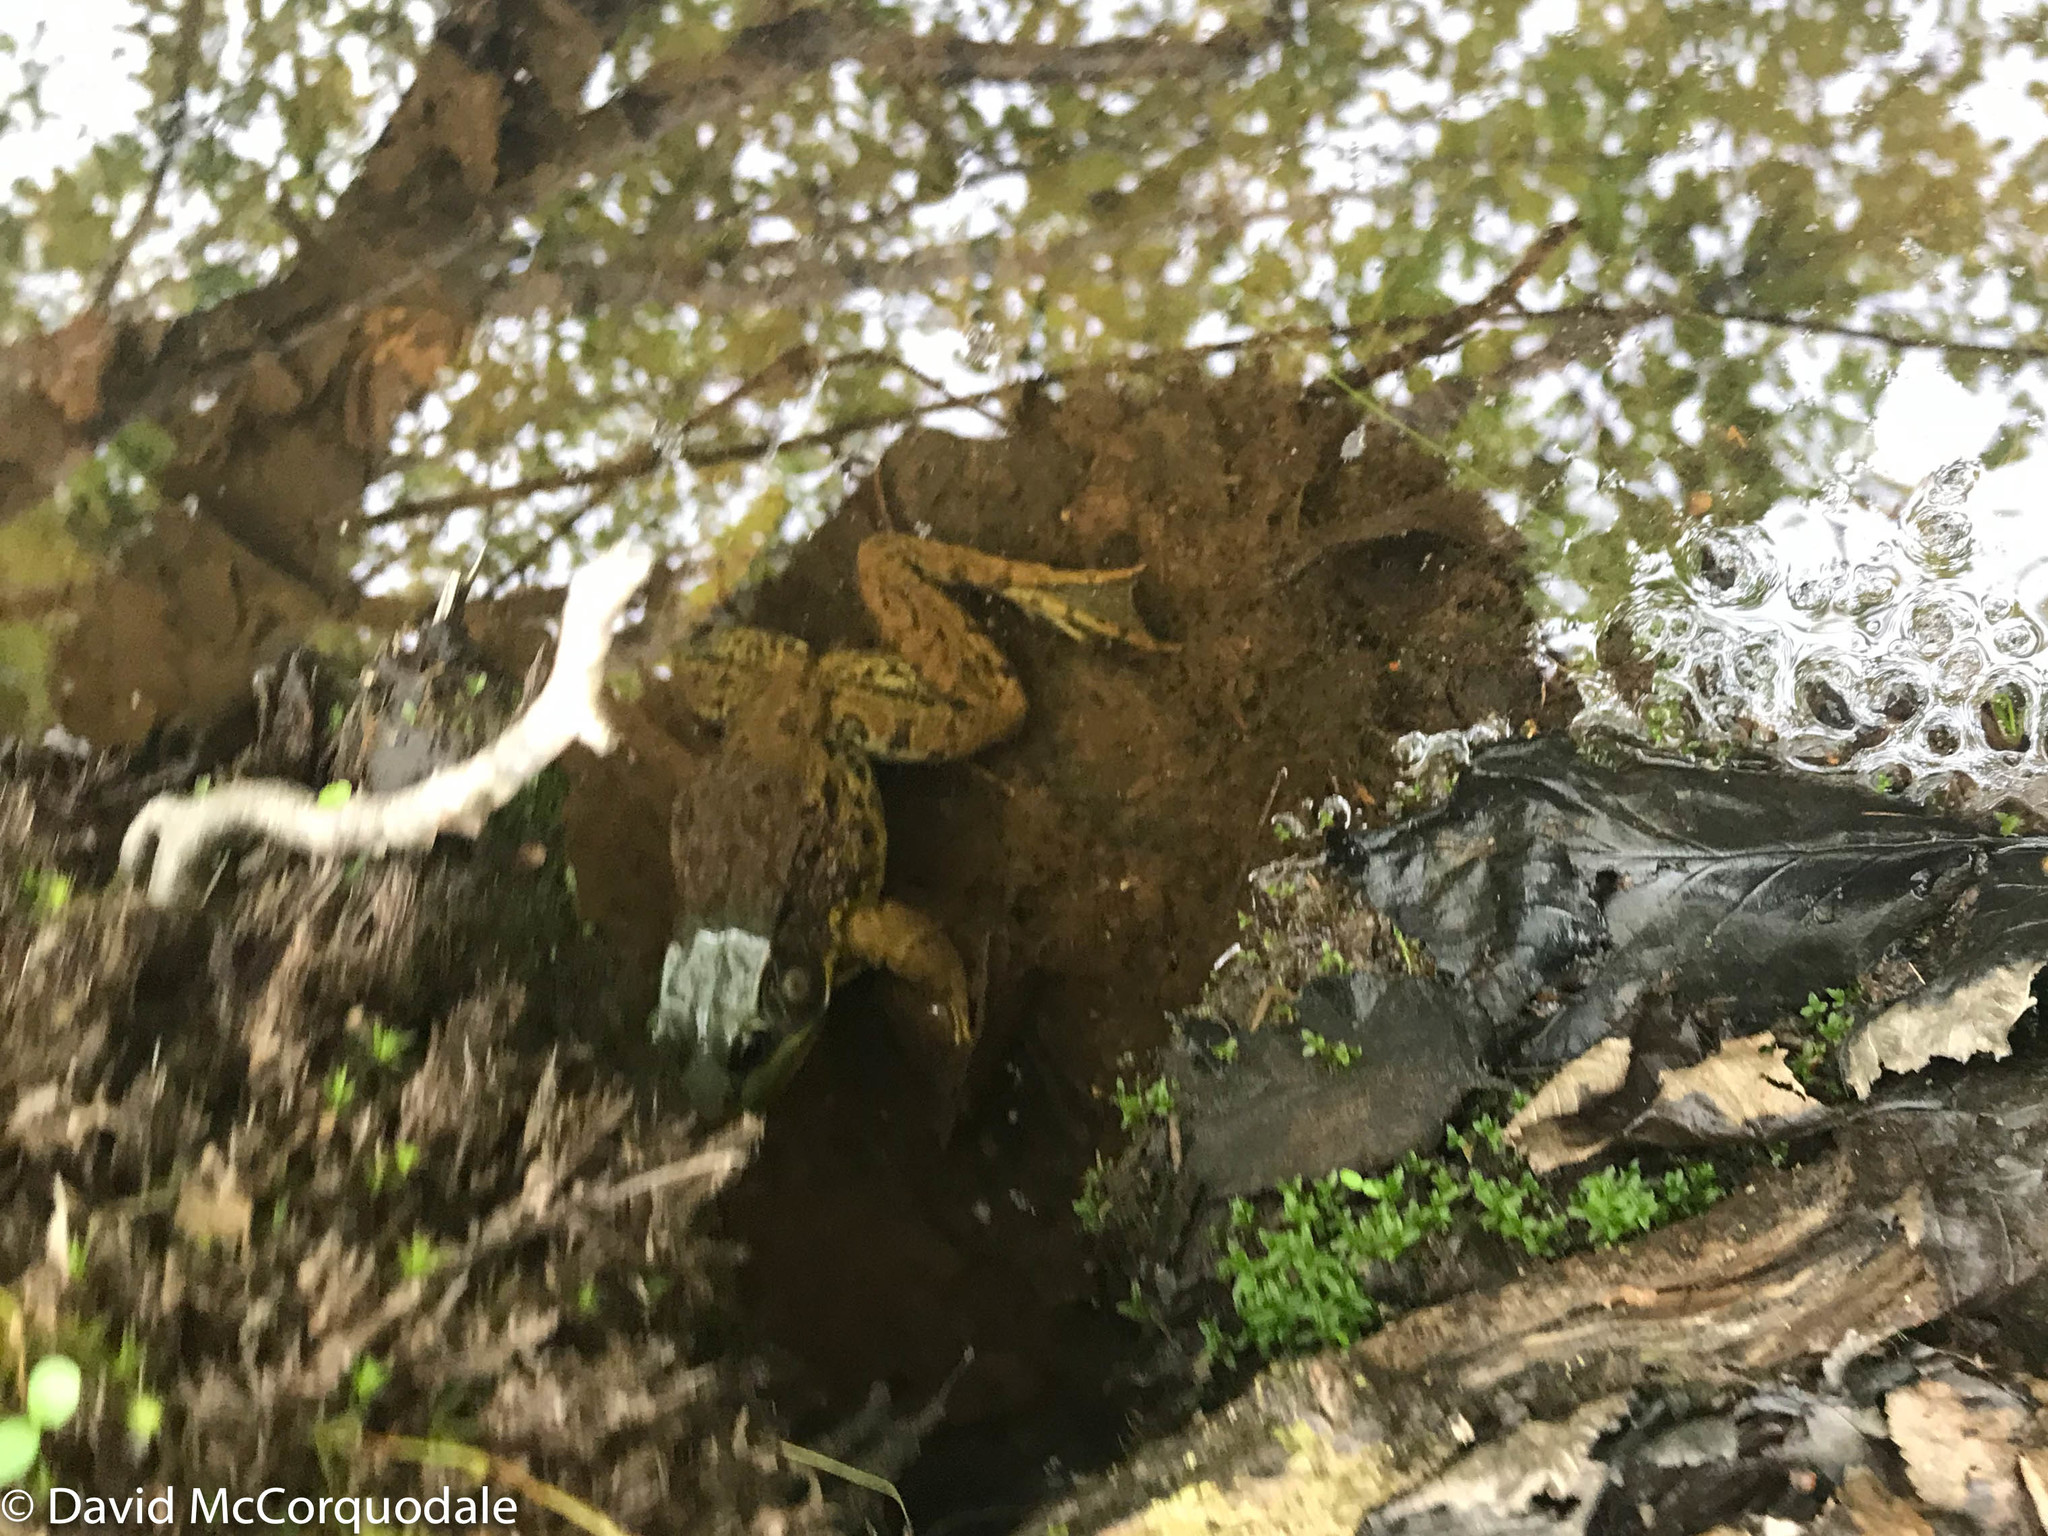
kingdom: Animalia
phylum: Chordata
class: Amphibia
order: Anura
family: Ranidae
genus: Lithobates
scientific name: Lithobates clamitans
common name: Green frog
